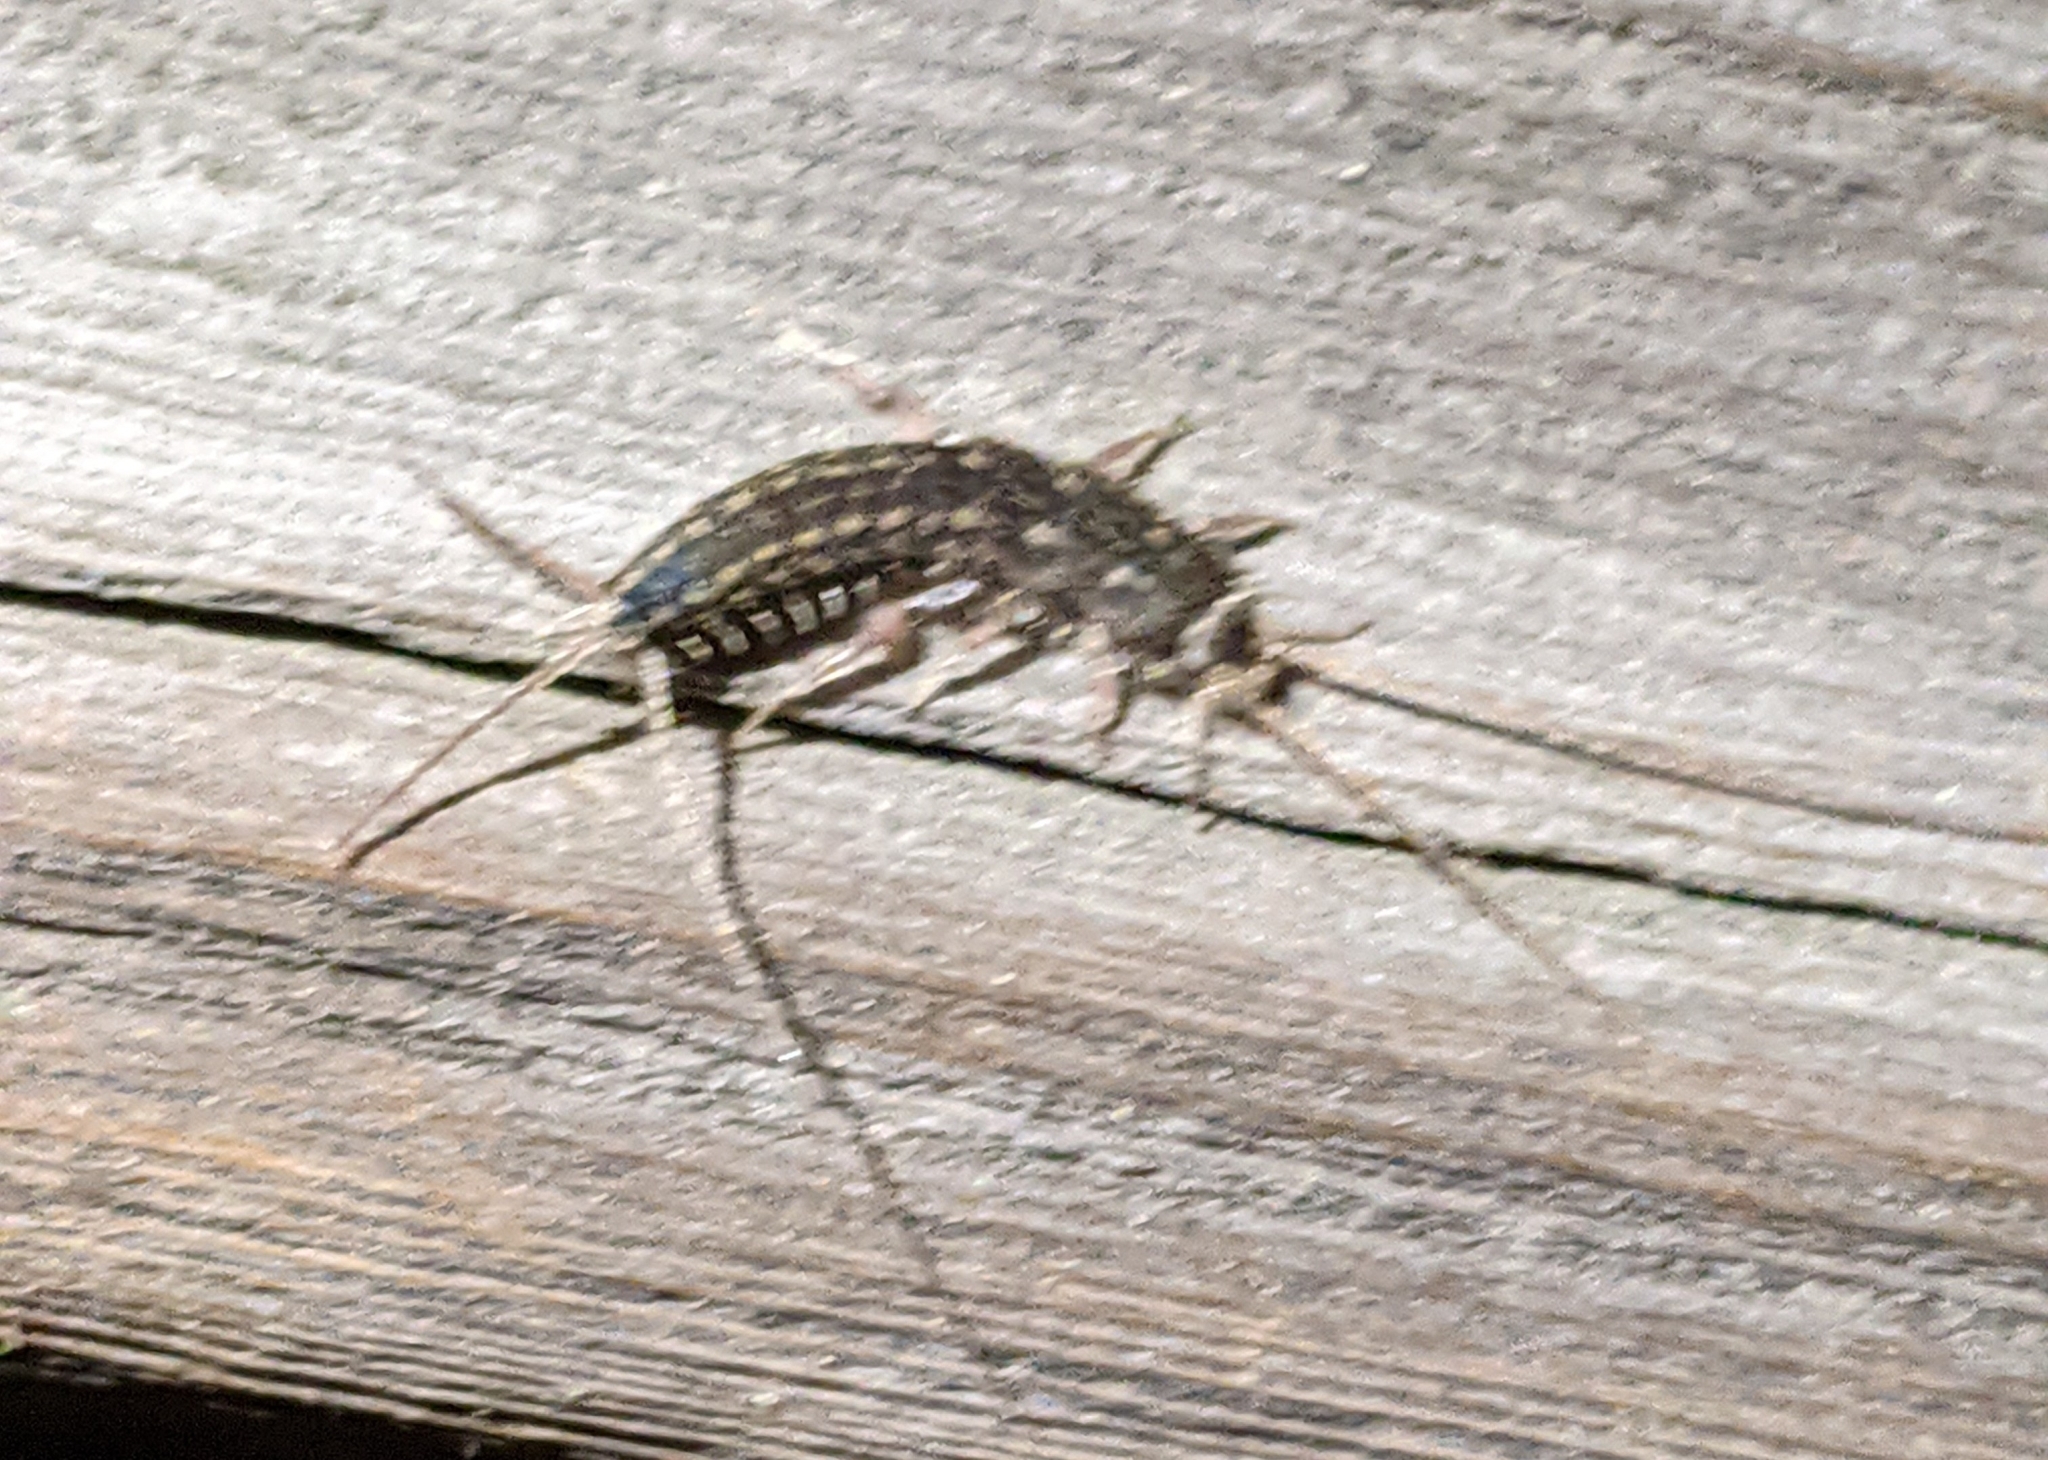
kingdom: Animalia
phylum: Arthropoda
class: Insecta
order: Zygentoma
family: Lepismatidae
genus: Ctenolepisma
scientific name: Ctenolepisma lineata
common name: Four-lined silverfish
